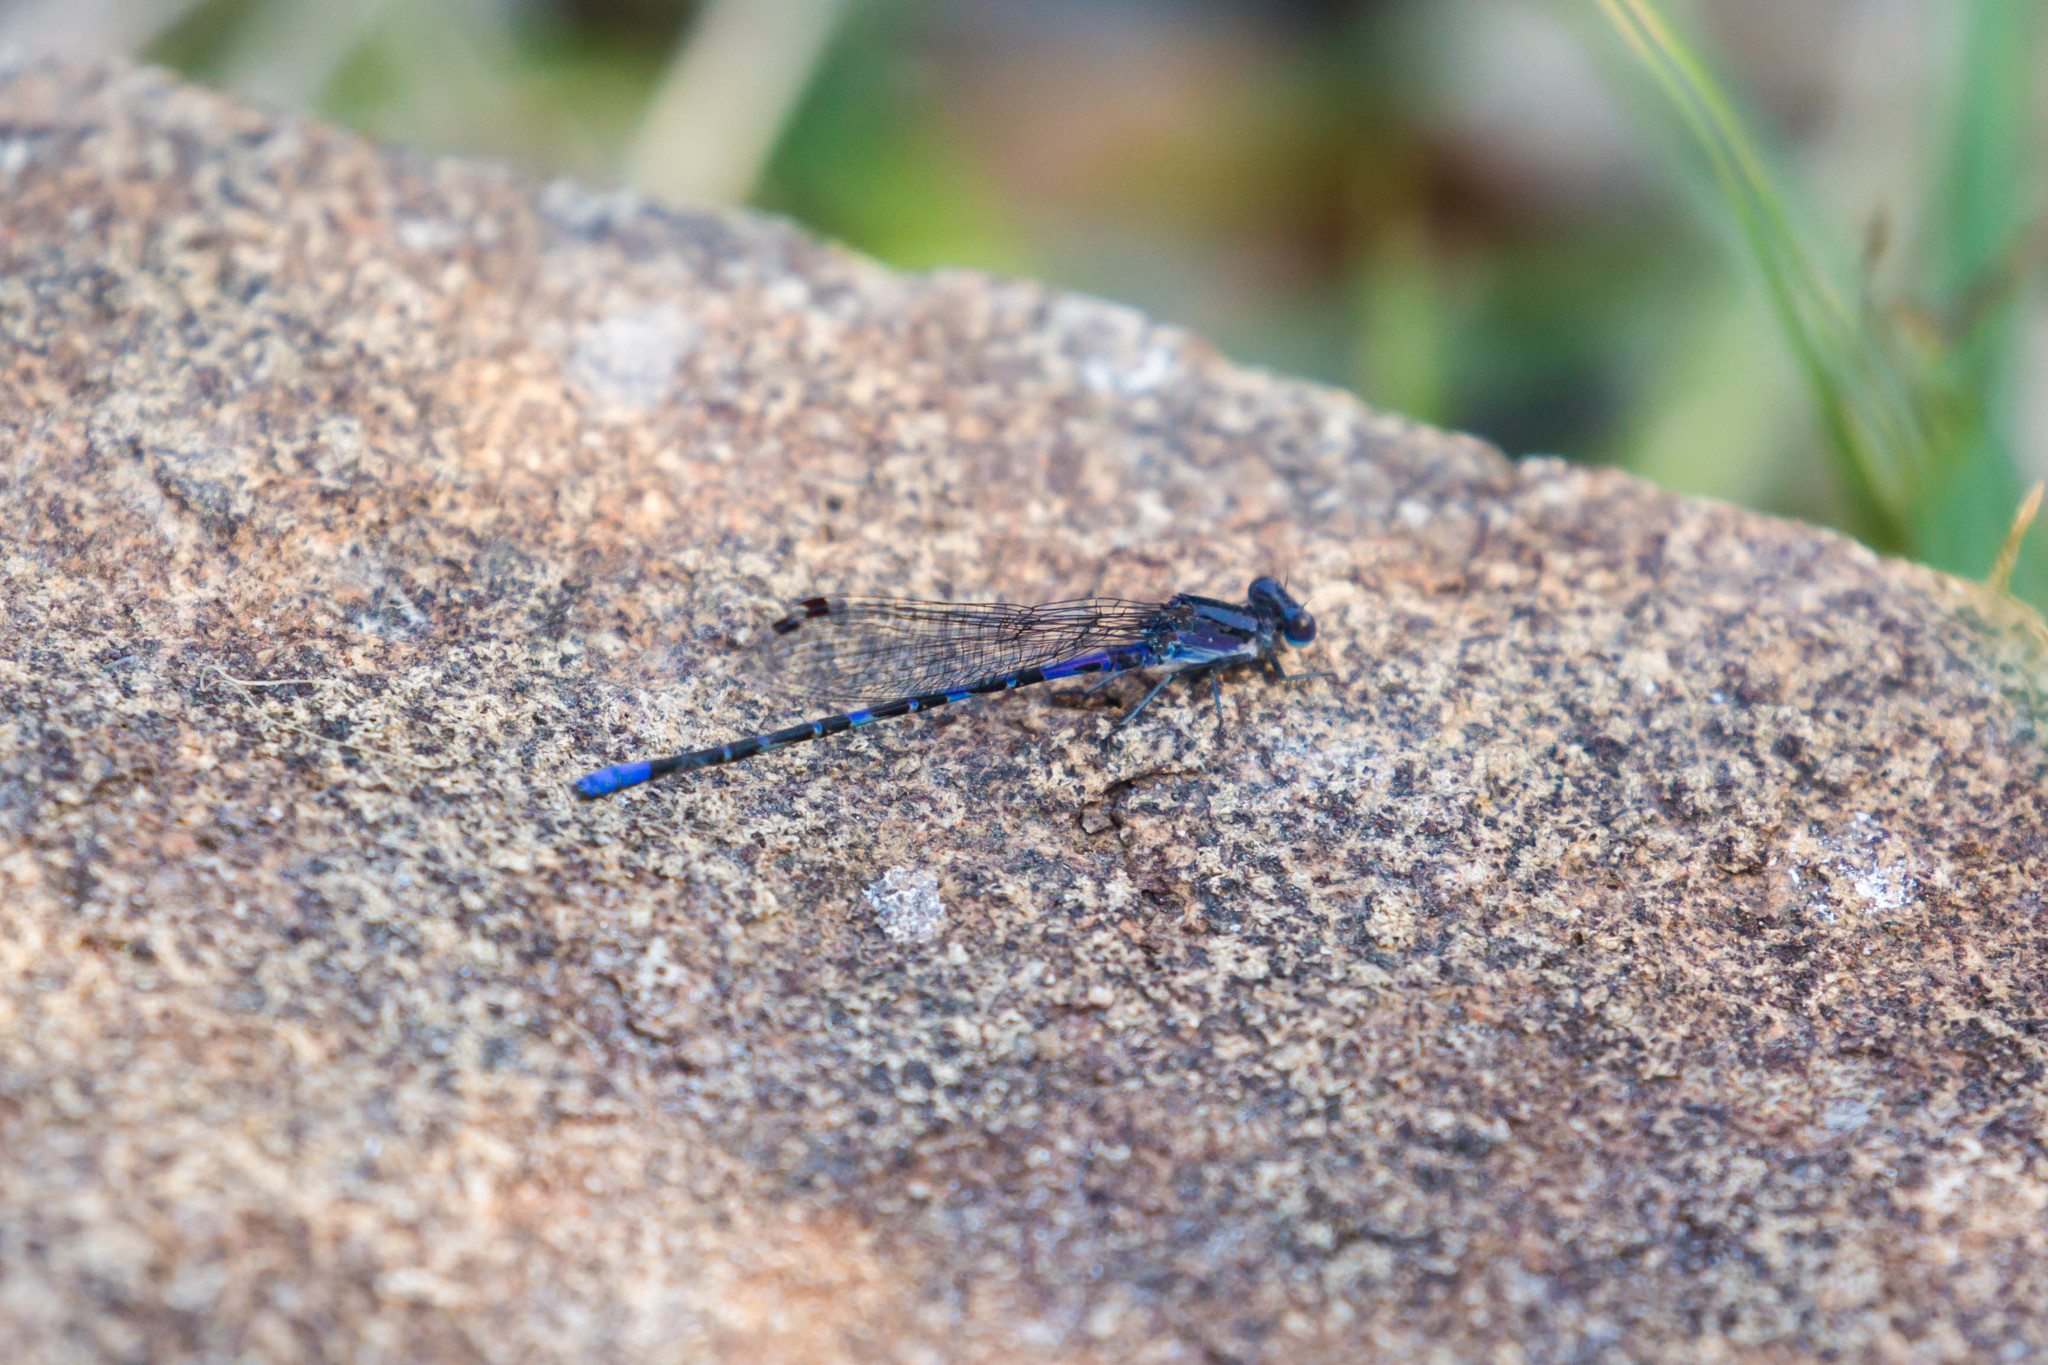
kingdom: Animalia
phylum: Arthropoda
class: Insecta
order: Odonata
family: Coenagrionidae
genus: Argia
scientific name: Argia immunda
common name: Kiowa dancer
